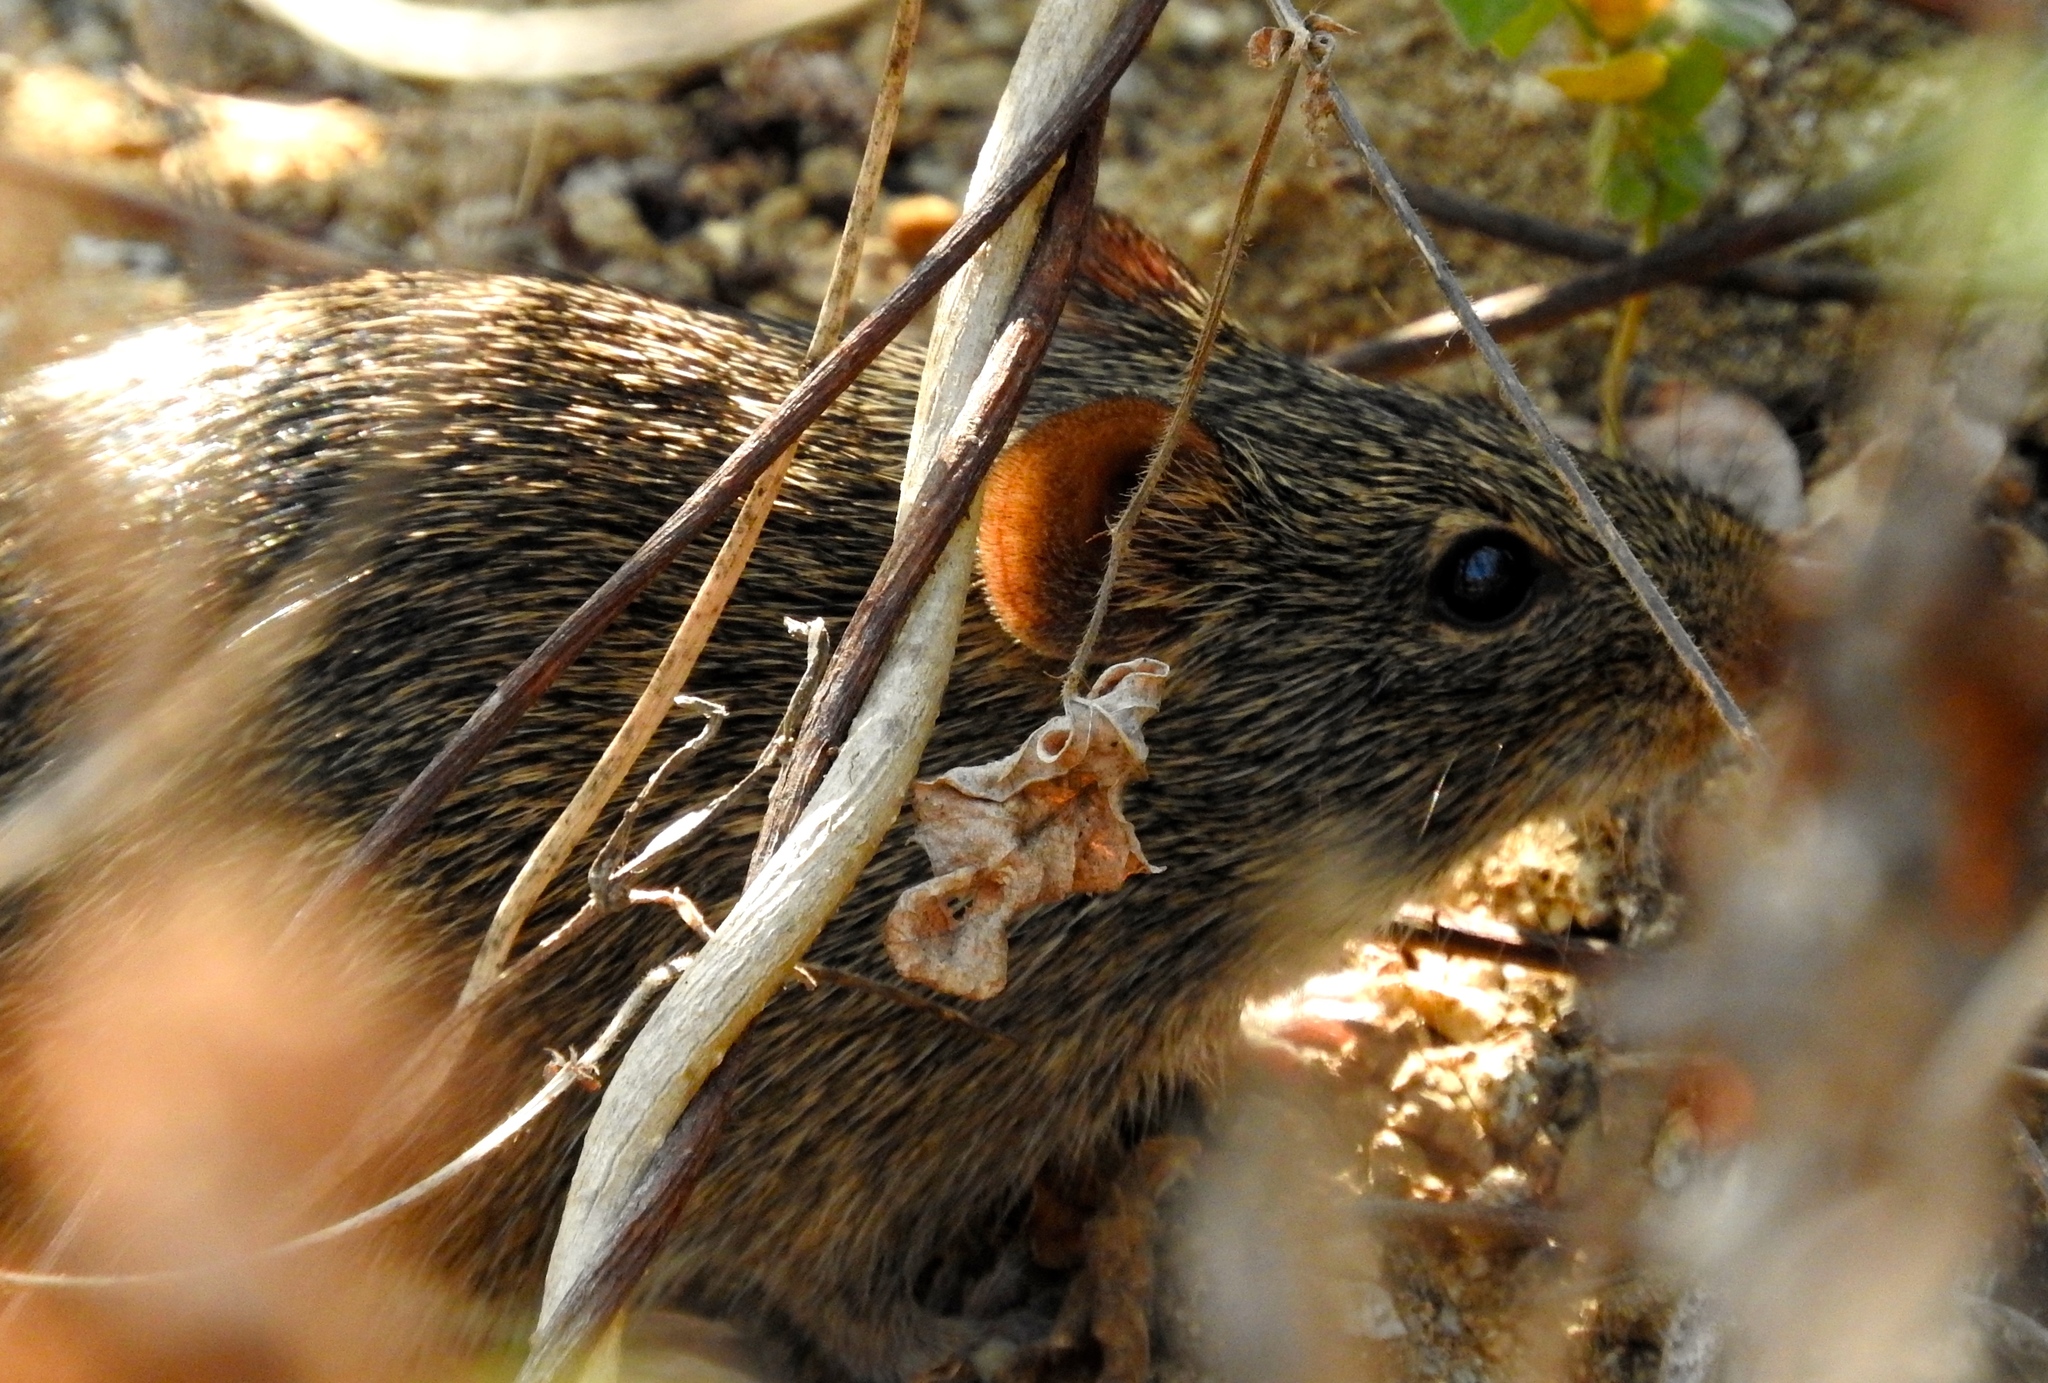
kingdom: Animalia
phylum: Chordata
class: Mammalia
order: Rodentia
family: Cricetidae
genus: Sigmodon
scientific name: Sigmodon arizonae
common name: Arizona cotton rat
